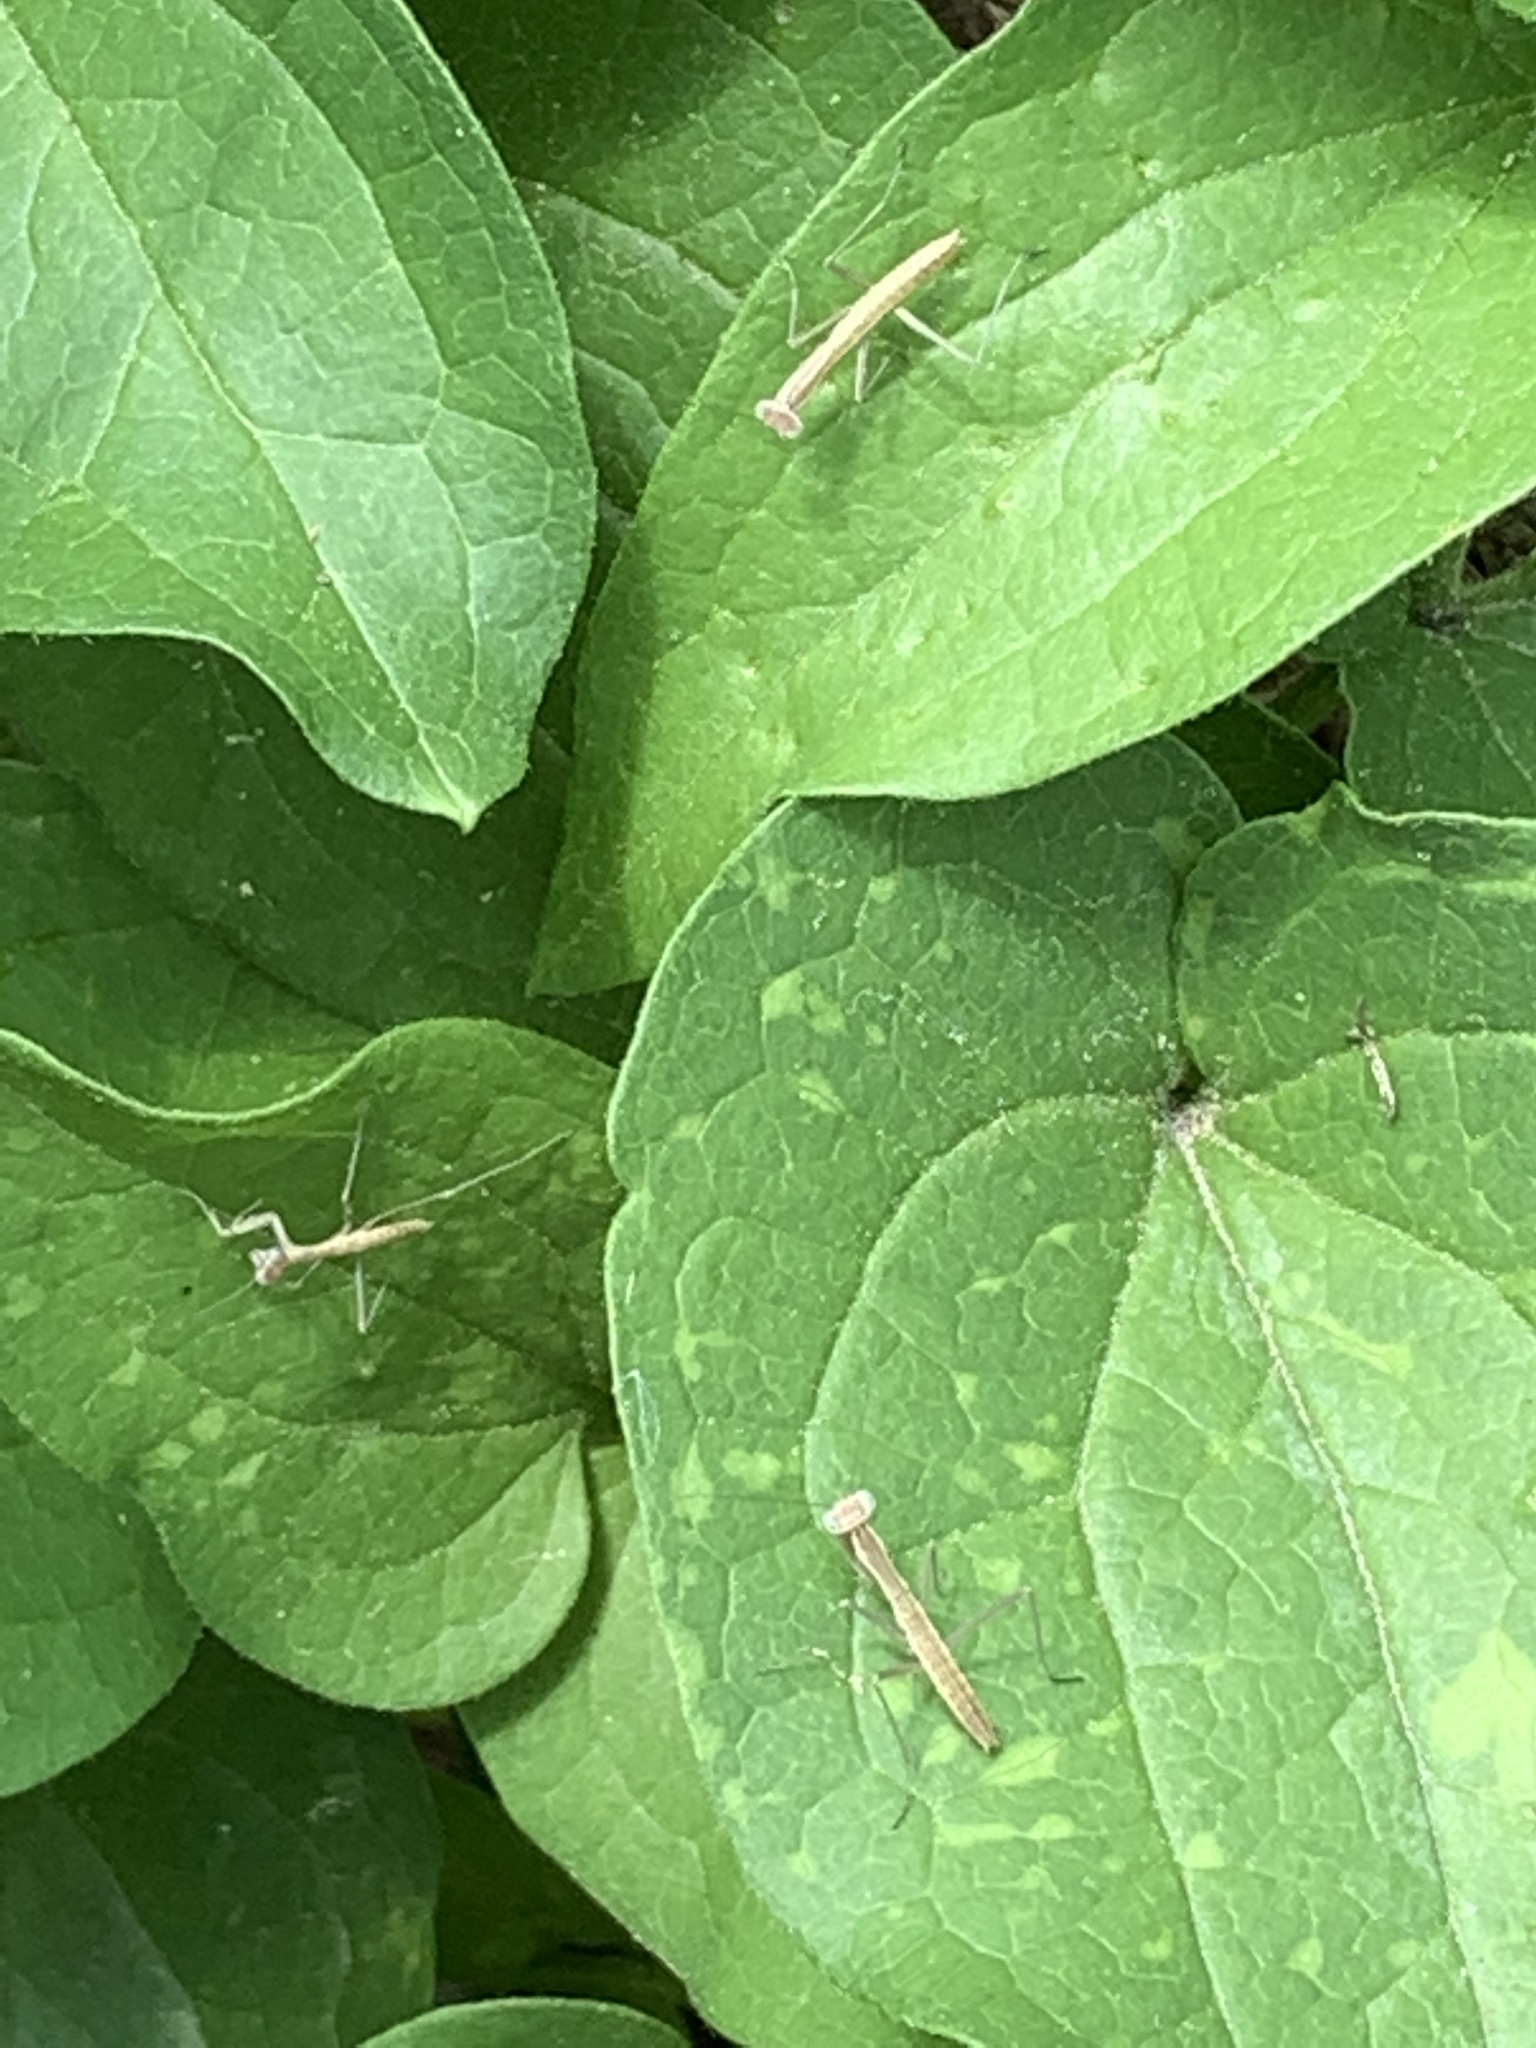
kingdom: Animalia
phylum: Arthropoda
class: Insecta
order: Mantodea
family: Mantidae
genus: Tenodera
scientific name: Tenodera sinensis
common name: Chinese mantis
